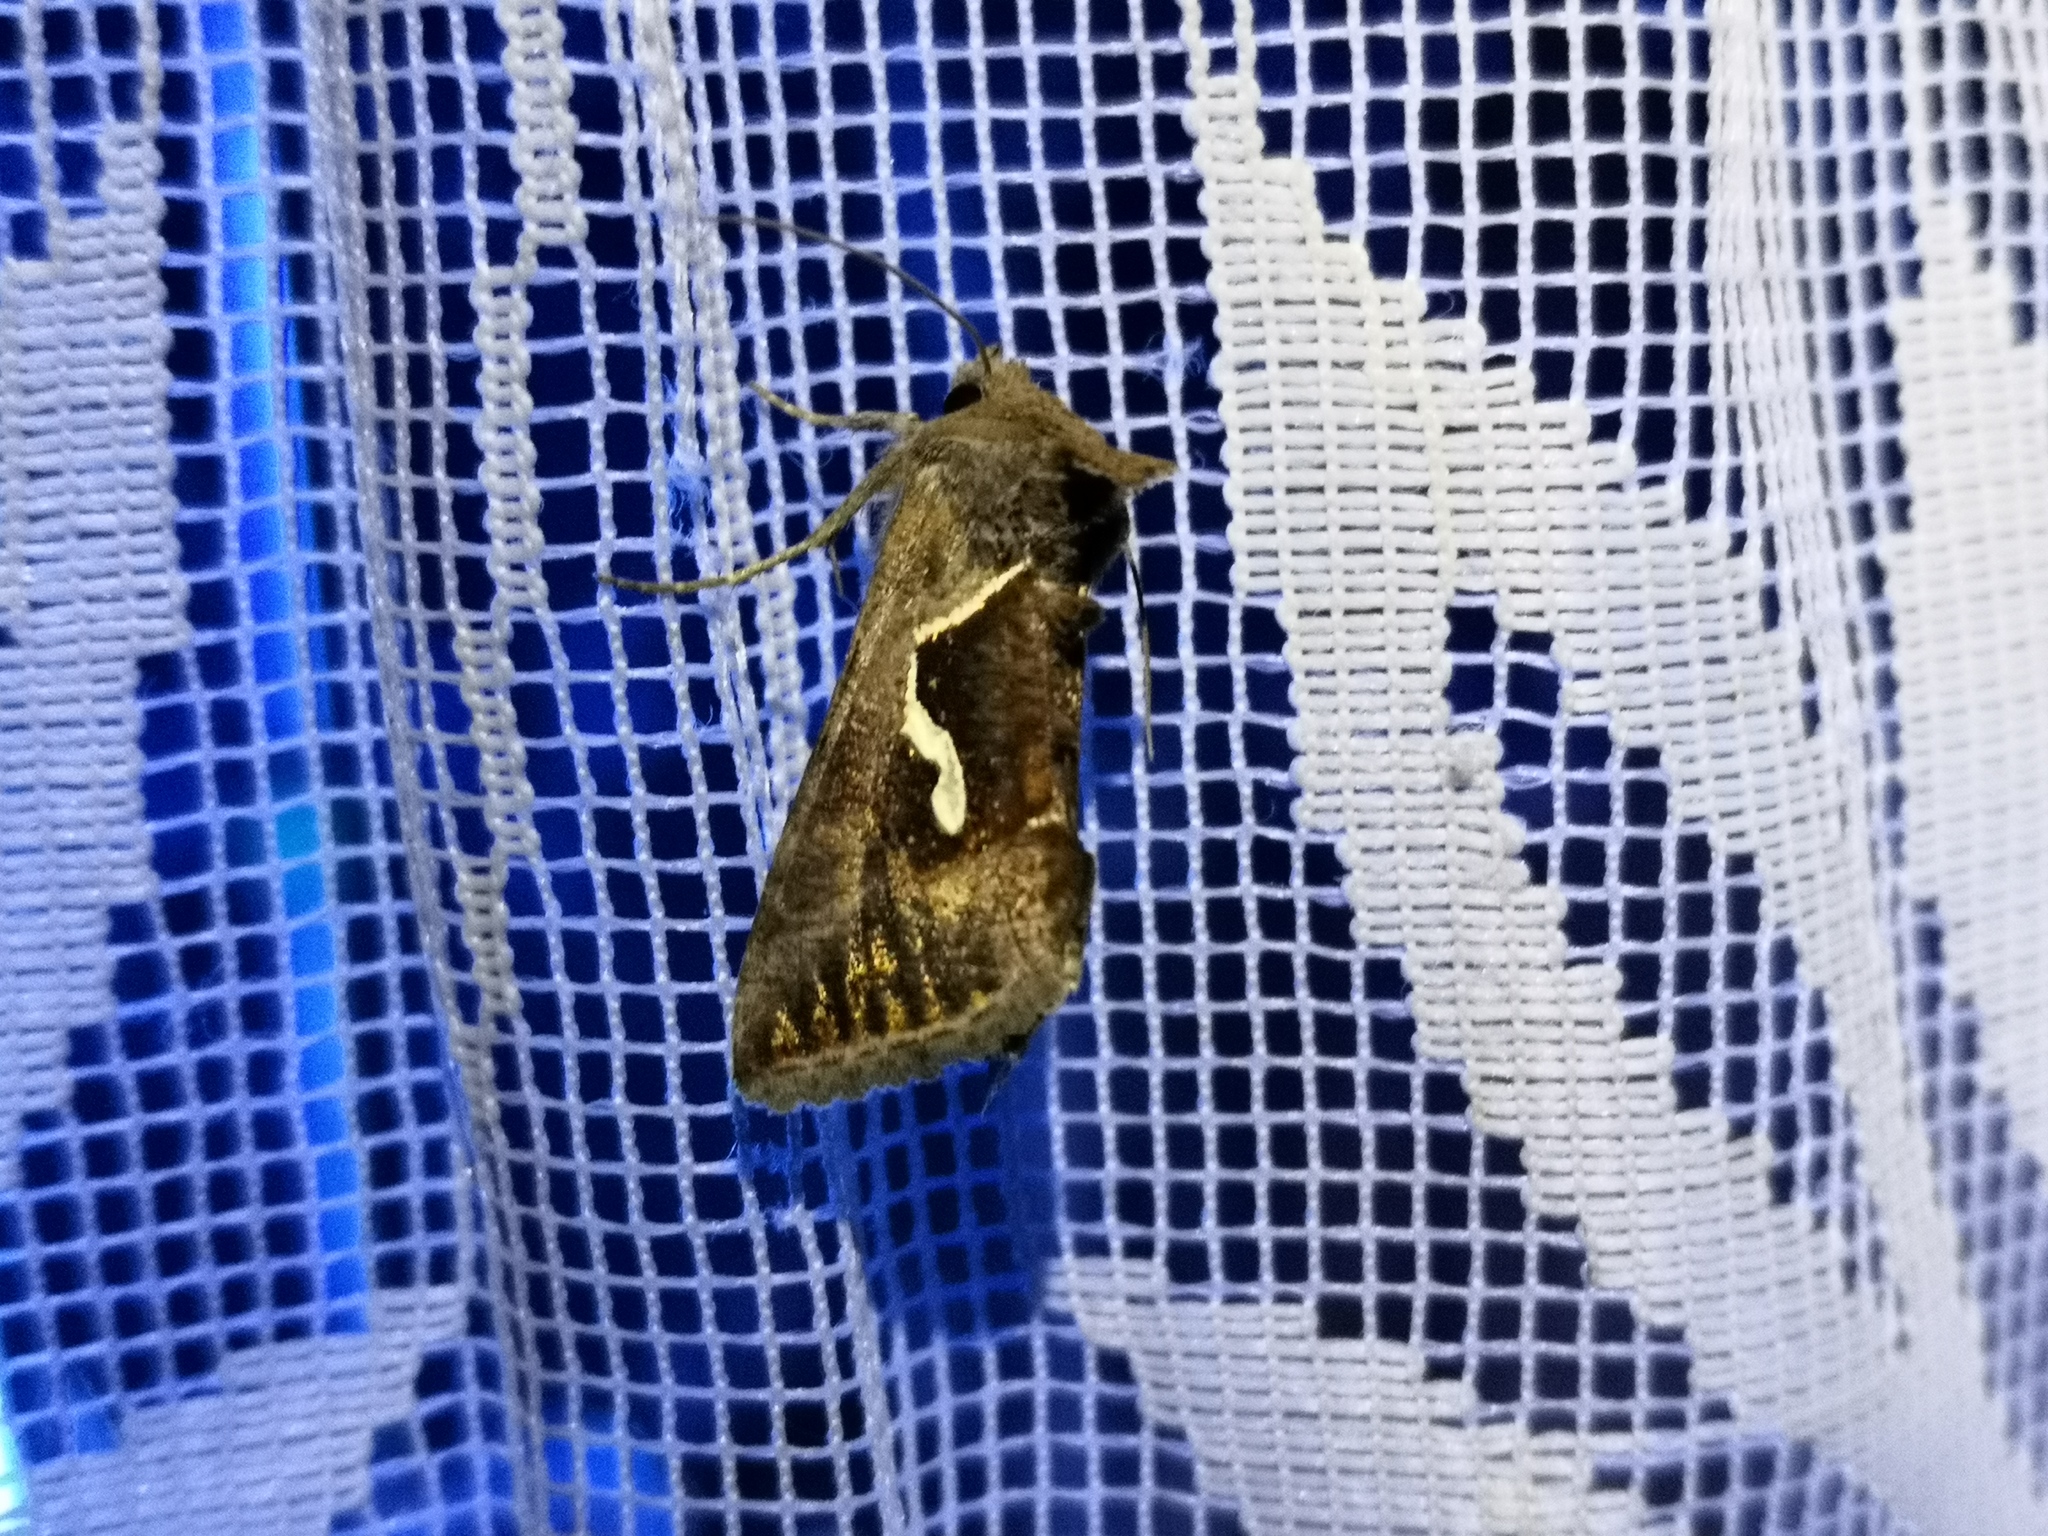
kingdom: Animalia
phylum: Arthropoda
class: Insecta
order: Lepidoptera
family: Noctuidae
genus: Macdunnoughia
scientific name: Macdunnoughia confusa
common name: Dewick's plusia
